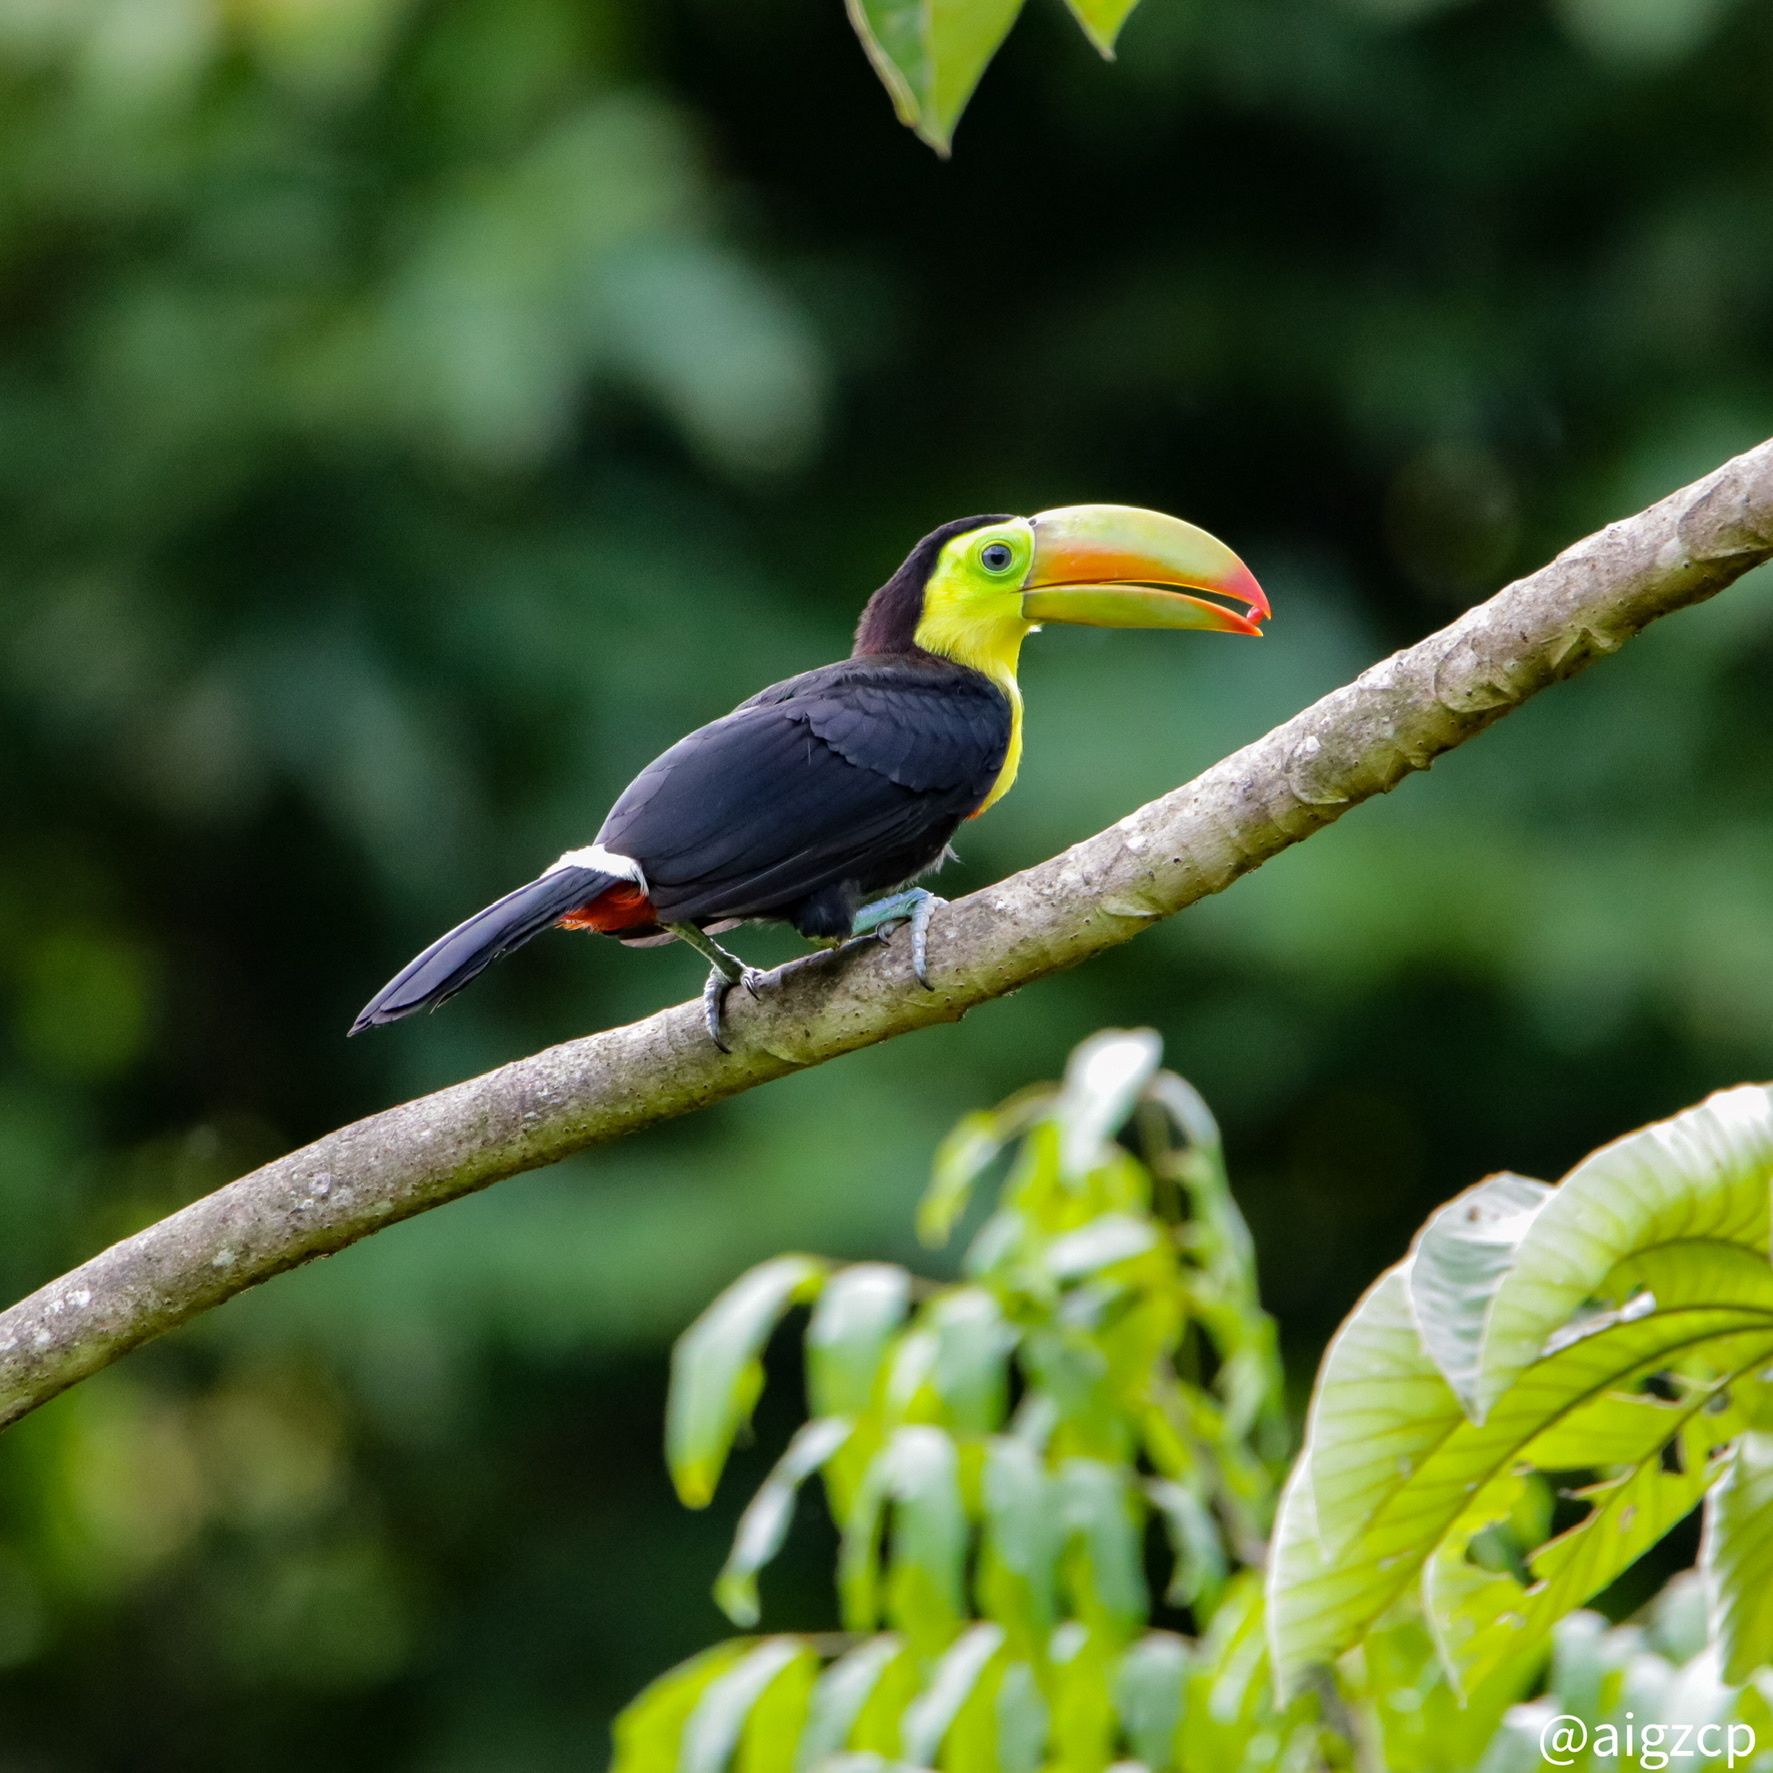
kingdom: Animalia
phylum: Chordata
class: Aves
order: Piciformes
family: Ramphastidae
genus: Ramphastos
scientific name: Ramphastos sulfuratus
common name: Keel-billed toucan
